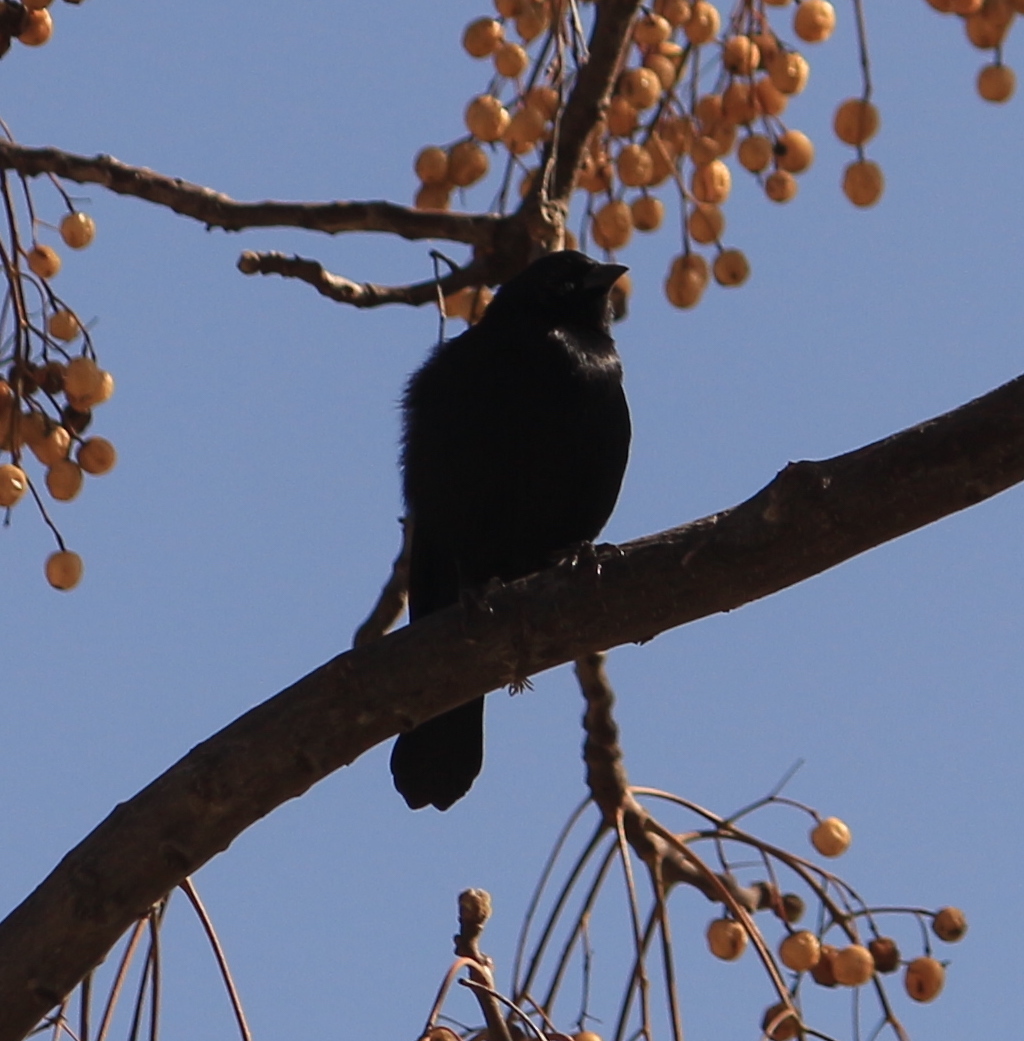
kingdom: Animalia
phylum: Chordata
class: Aves
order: Passeriformes
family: Icteridae
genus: Molothrus
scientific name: Molothrus rufoaxillaris
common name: Screaming cowbird
